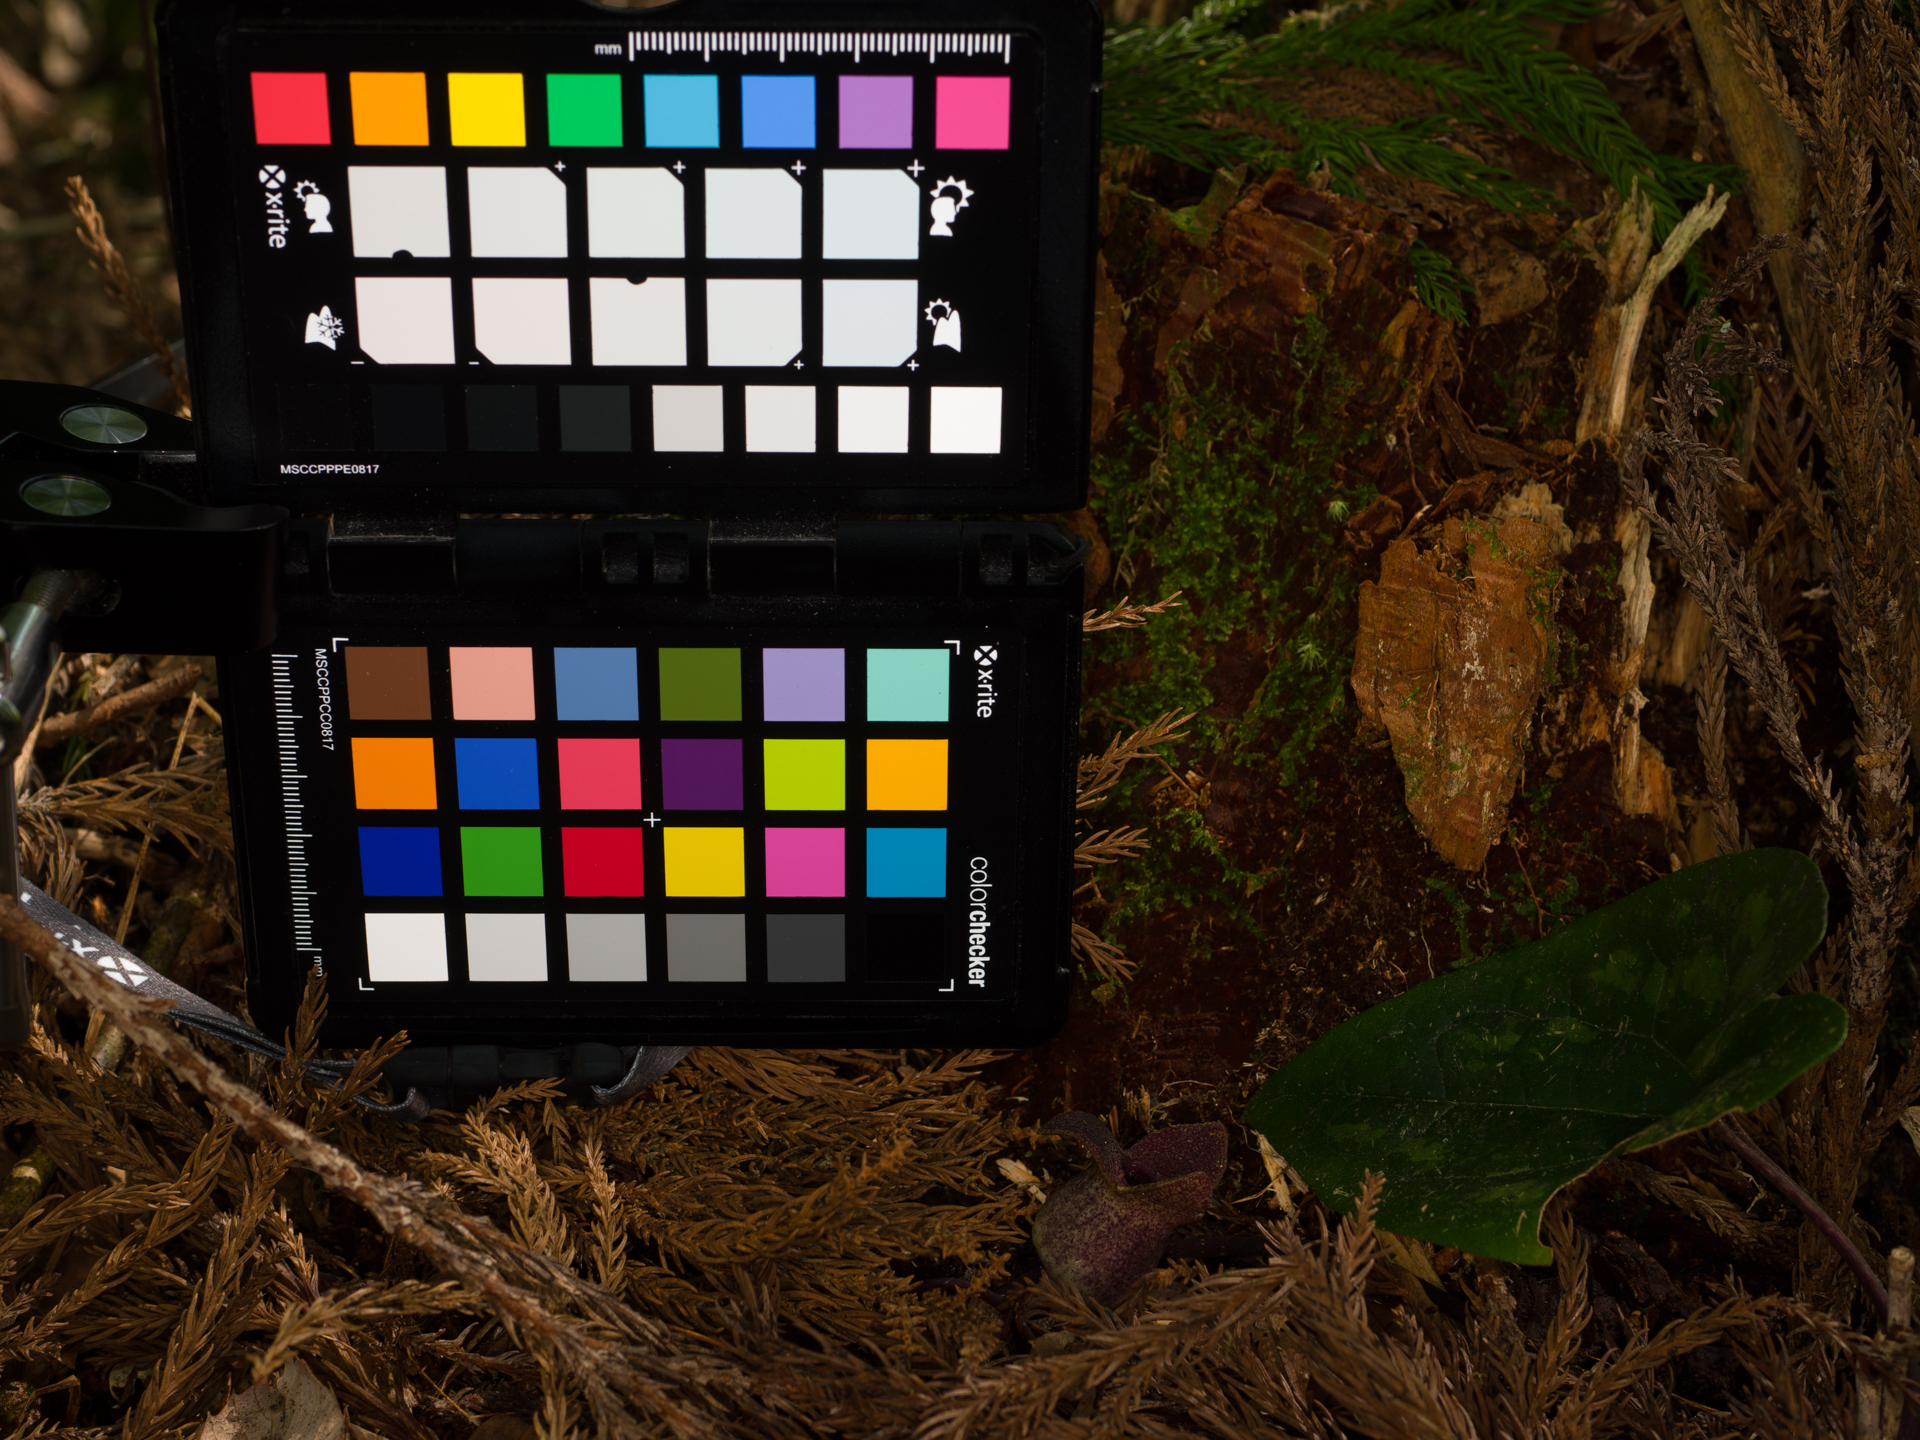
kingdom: Plantae
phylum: Tracheophyta
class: Magnoliopsida
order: Piperales
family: Aristolochiaceae
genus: Asarum
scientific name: Asarum megacalyx
